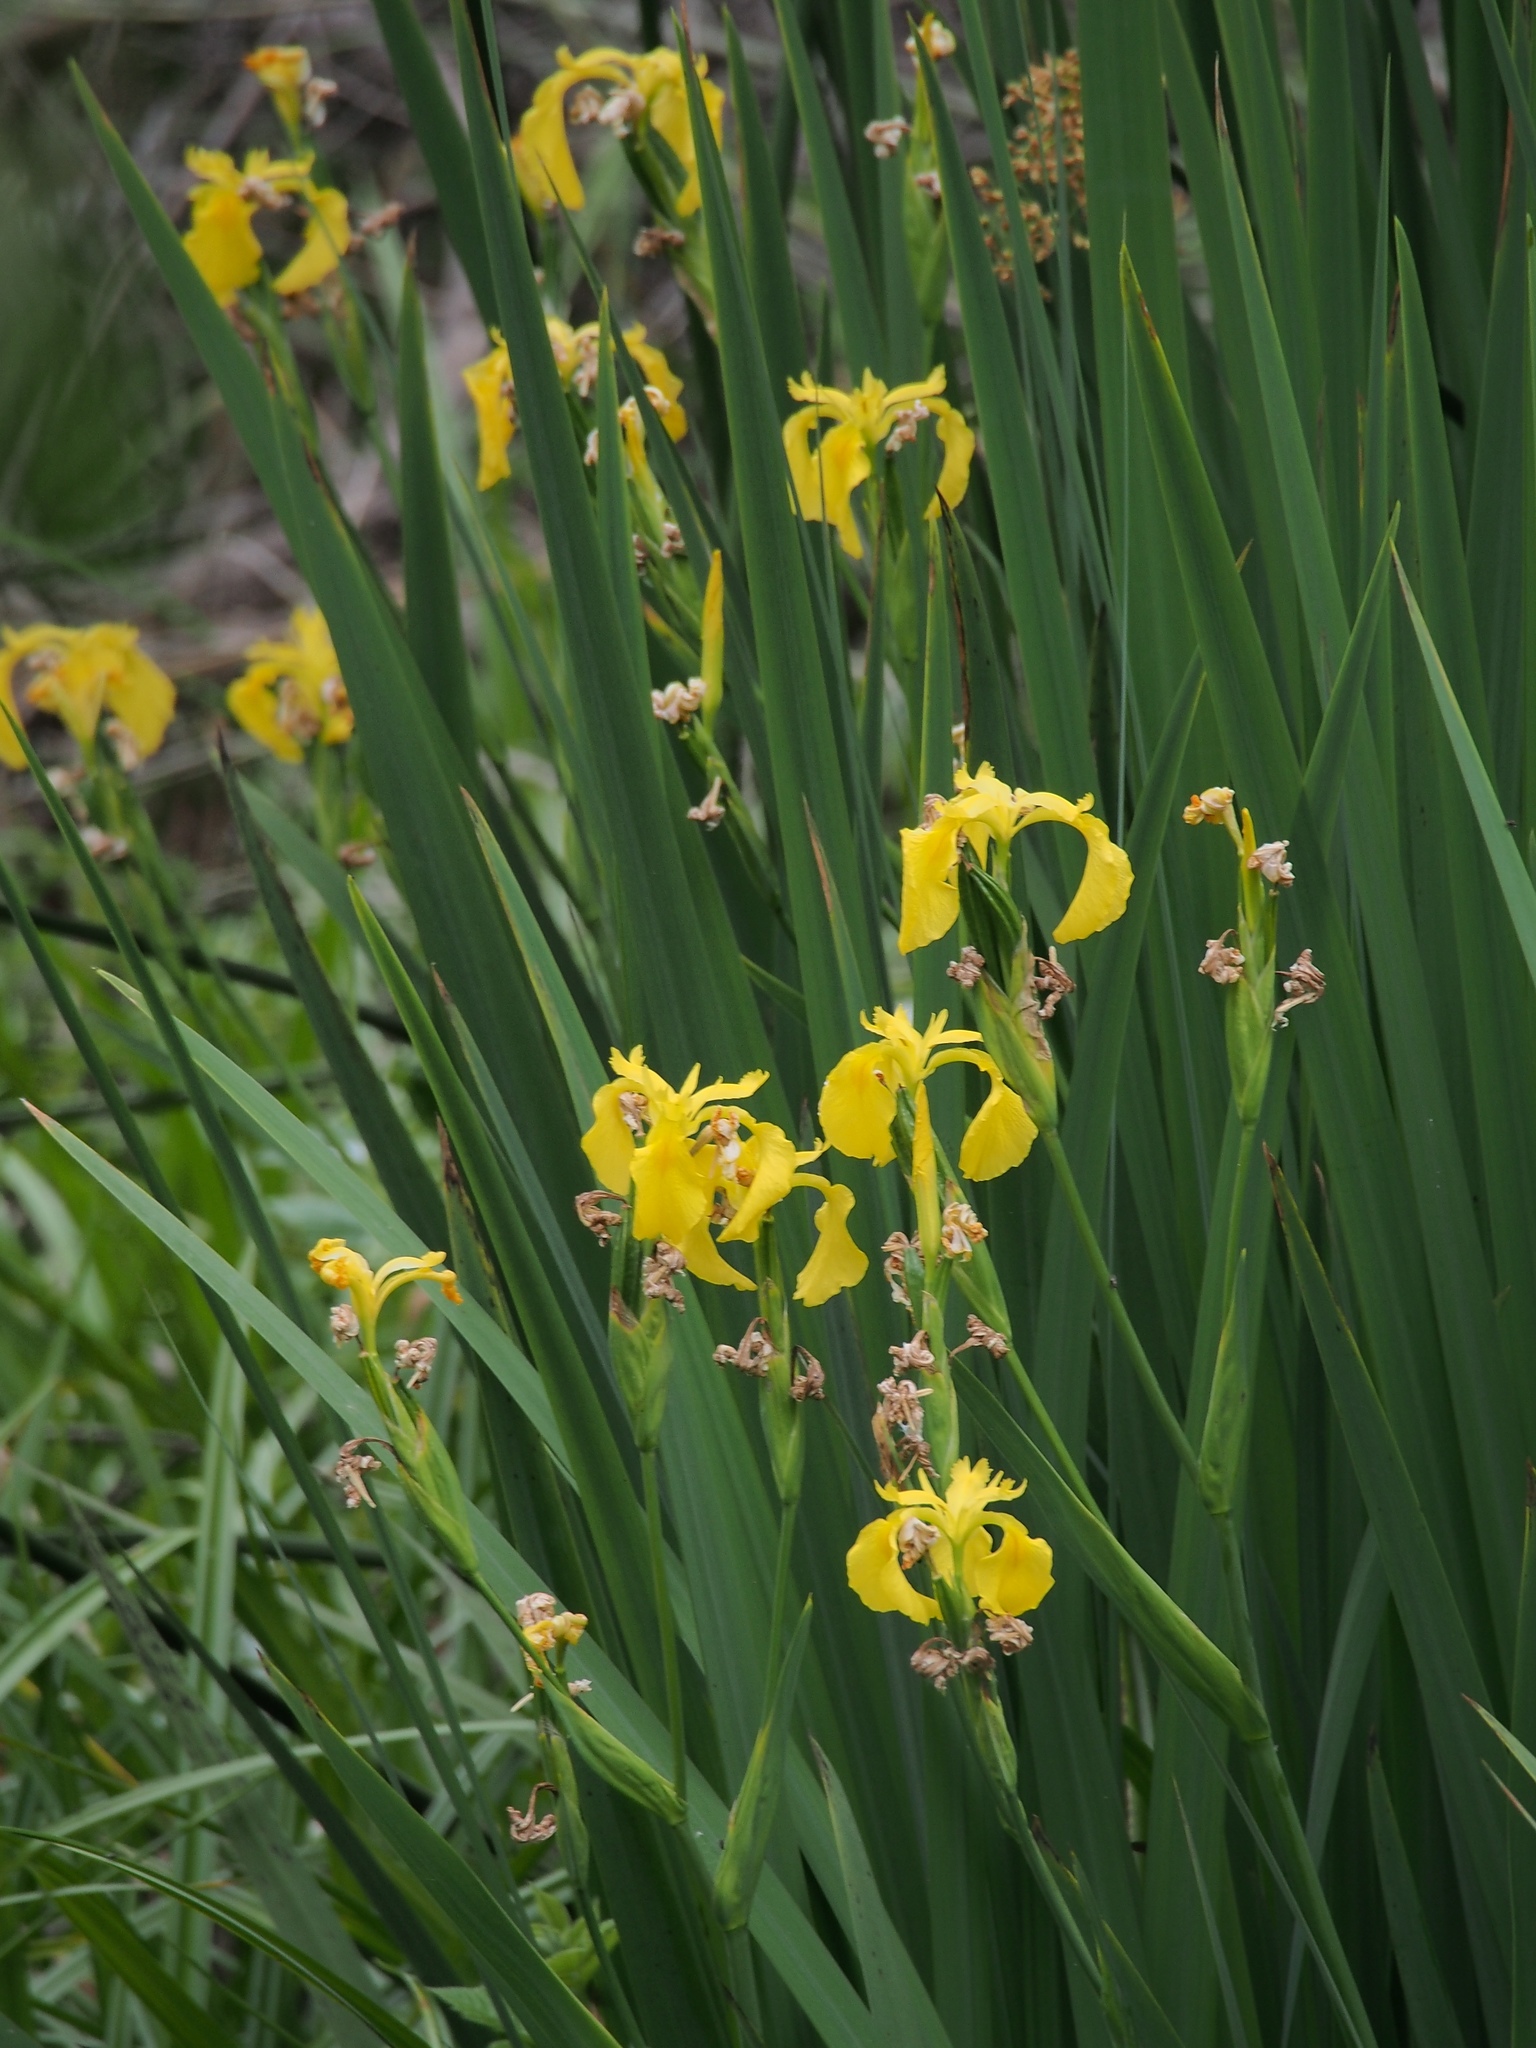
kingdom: Plantae
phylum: Tracheophyta
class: Liliopsida
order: Asparagales
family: Iridaceae
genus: Iris
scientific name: Iris pseudacorus
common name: Yellow flag
